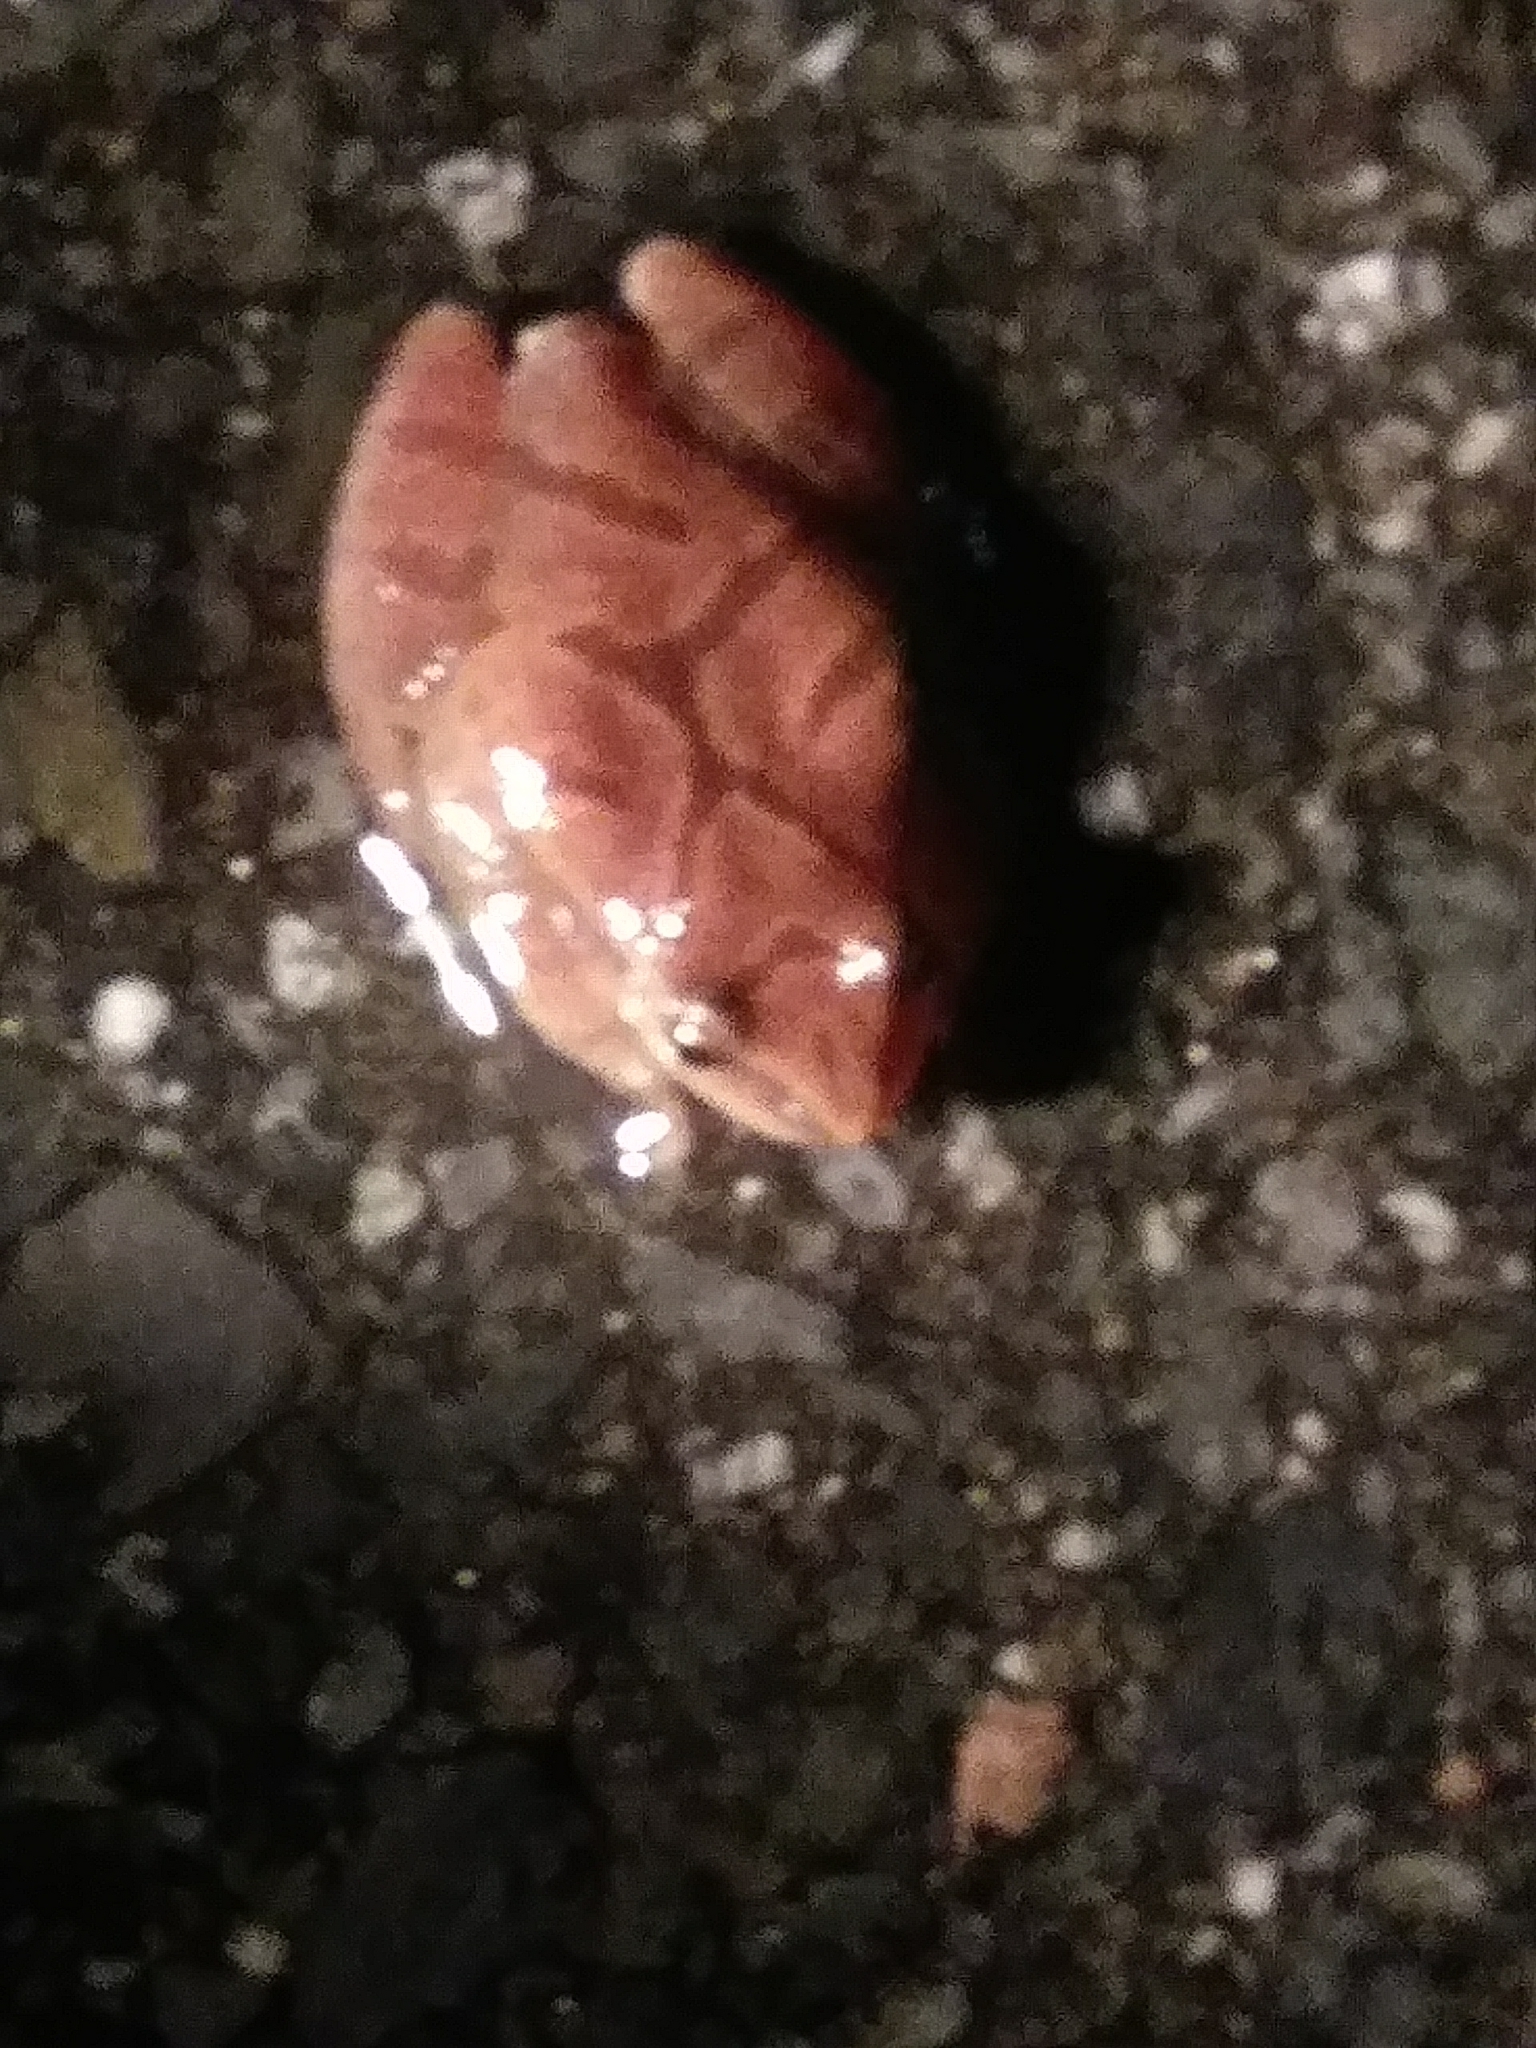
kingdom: Animalia
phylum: Chordata
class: Amphibia
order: Anura
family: Hylidae
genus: Pseudacris
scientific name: Pseudacris crucifer
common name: Spring peeper
